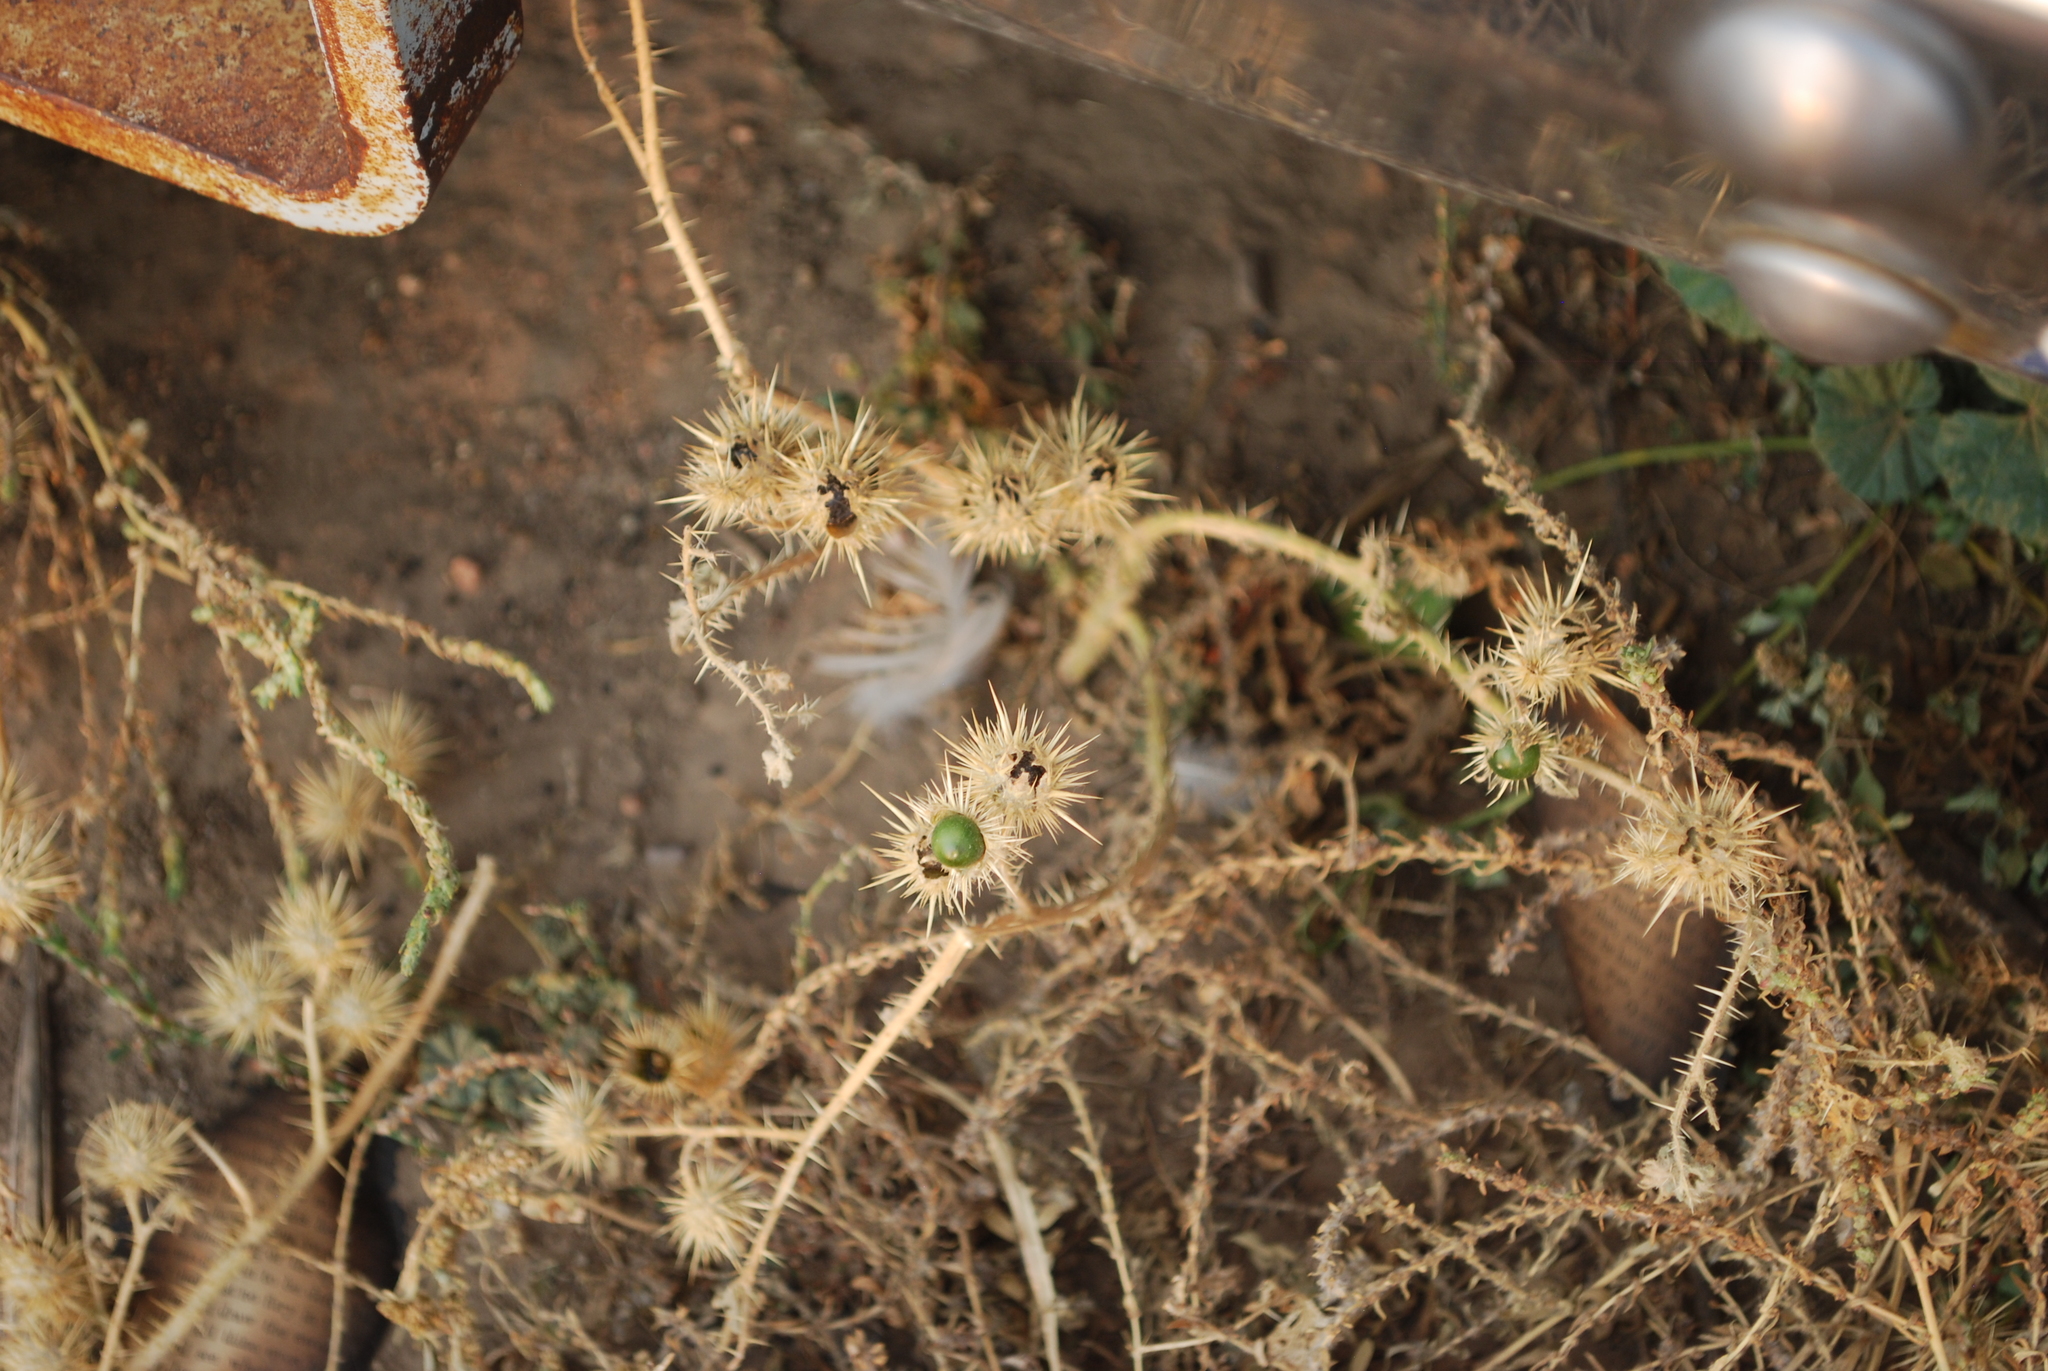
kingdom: Plantae
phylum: Tracheophyta
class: Magnoliopsida
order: Solanales
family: Solanaceae
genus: Solanum
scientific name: Solanum angustifolium
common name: Buffalobur nightshade
